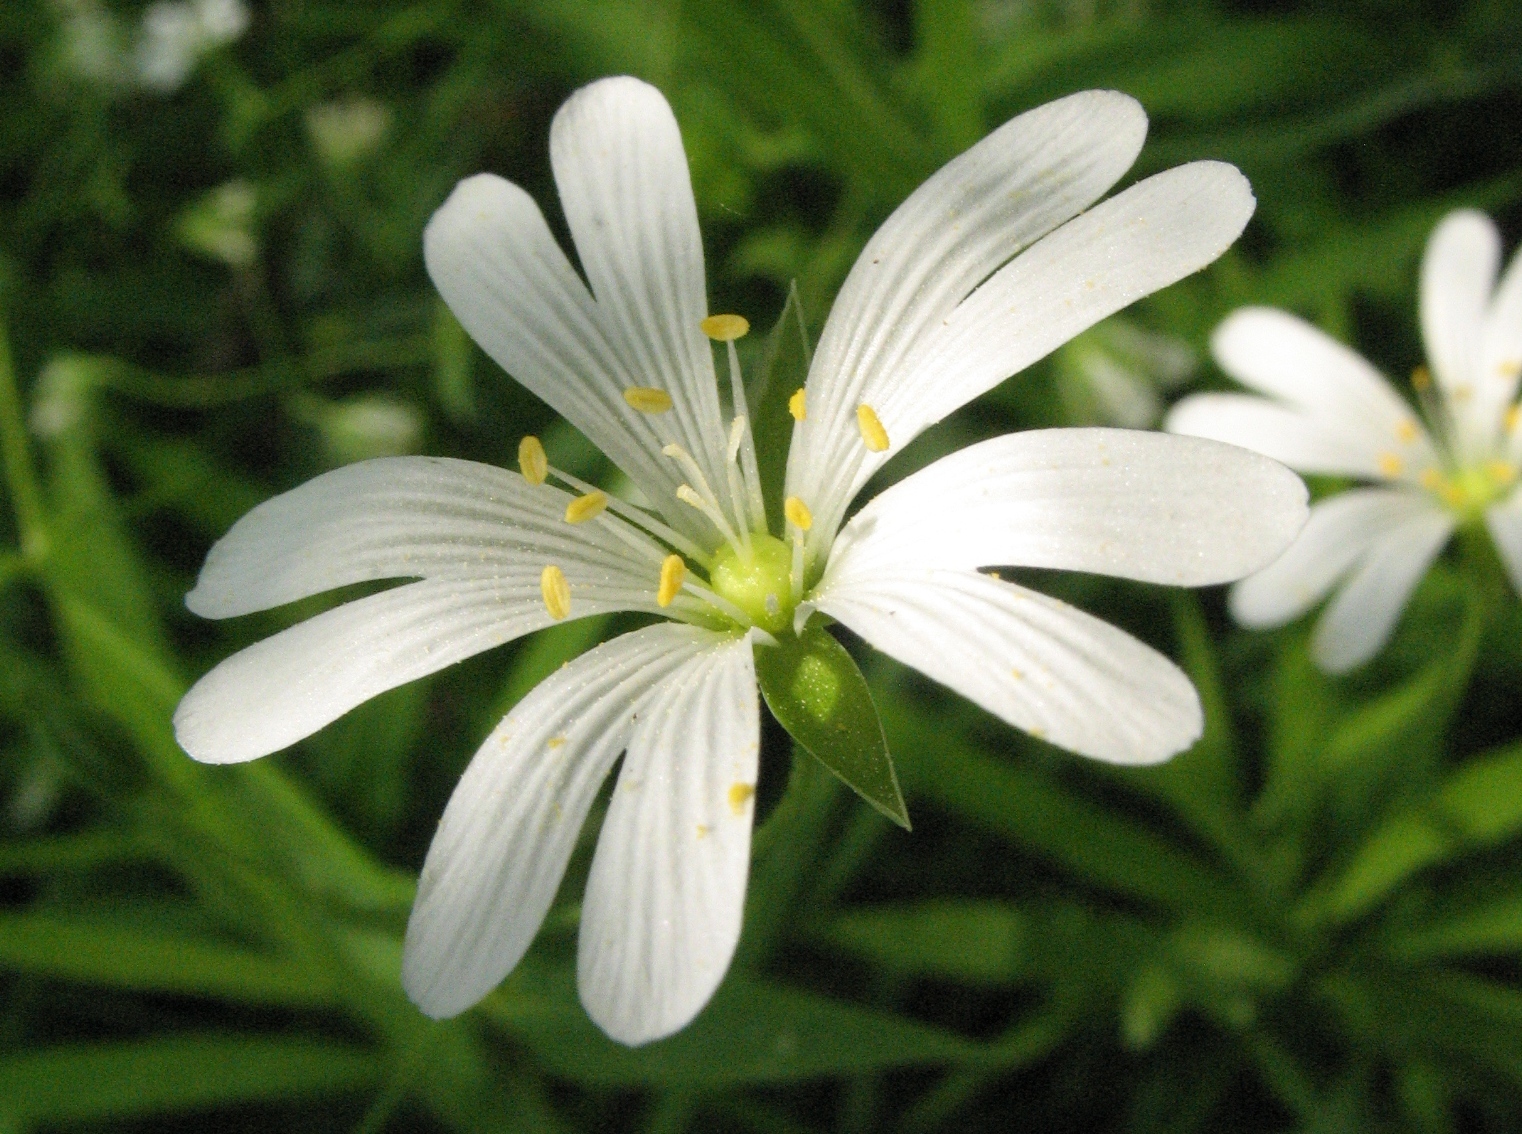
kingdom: Plantae
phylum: Tracheophyta
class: Magnoliopsida
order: Caryophyllales
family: Caryophyllaceae
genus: Rabelera
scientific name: Rabelera holostea
